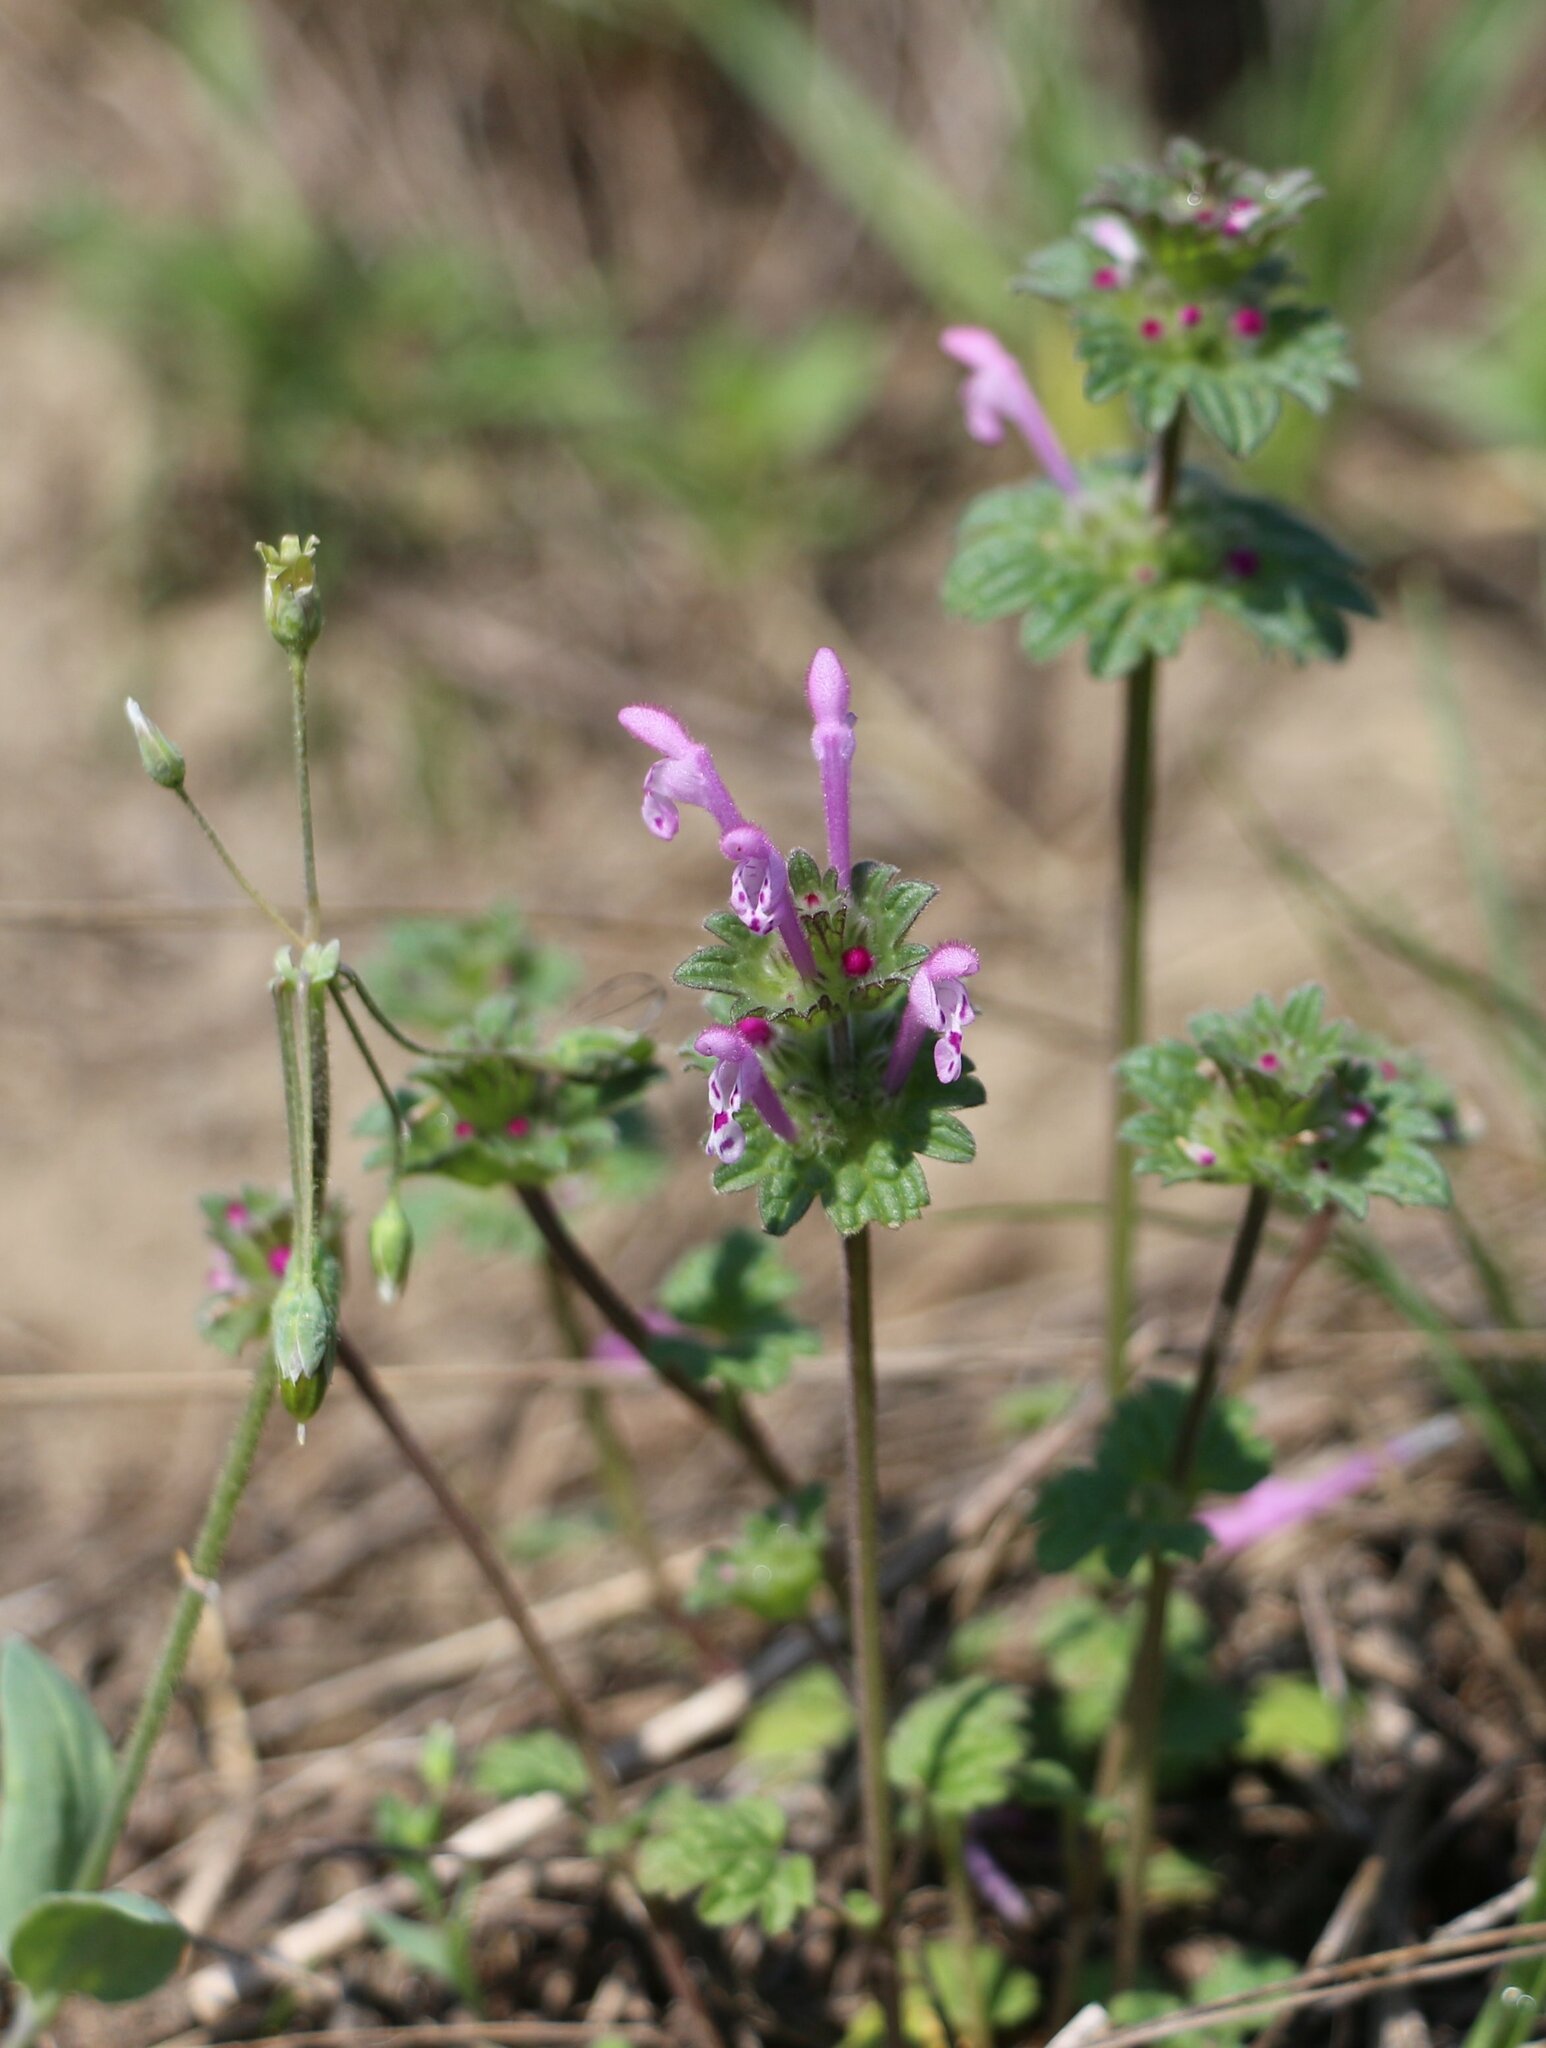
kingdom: Plantae
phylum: Tracheophyta
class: Magnoliopsida
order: Lamiales
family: Lamiaceae
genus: Lamium
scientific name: Lamium amplexicaule
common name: Henbit dead-nettle
